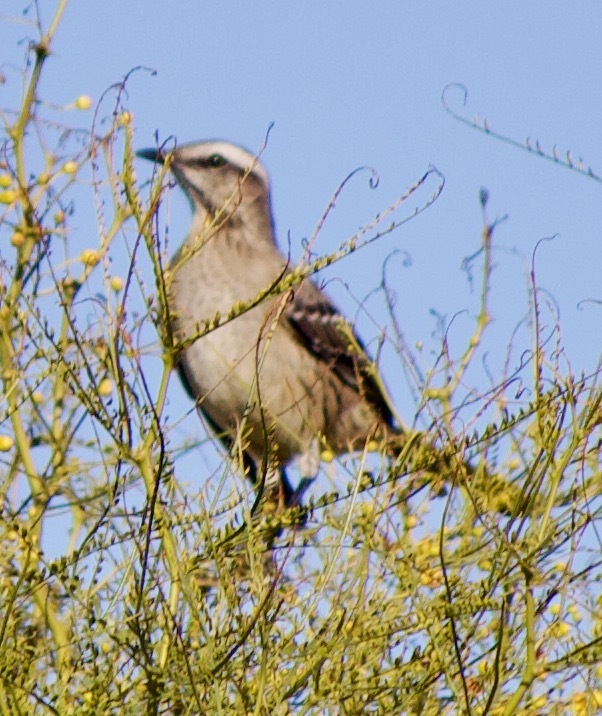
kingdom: Animalia
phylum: Chordata
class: Aves
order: Passeriformes
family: Mimidae
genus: Mimus
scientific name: Mimus thenca
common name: Chilean mockingbird
